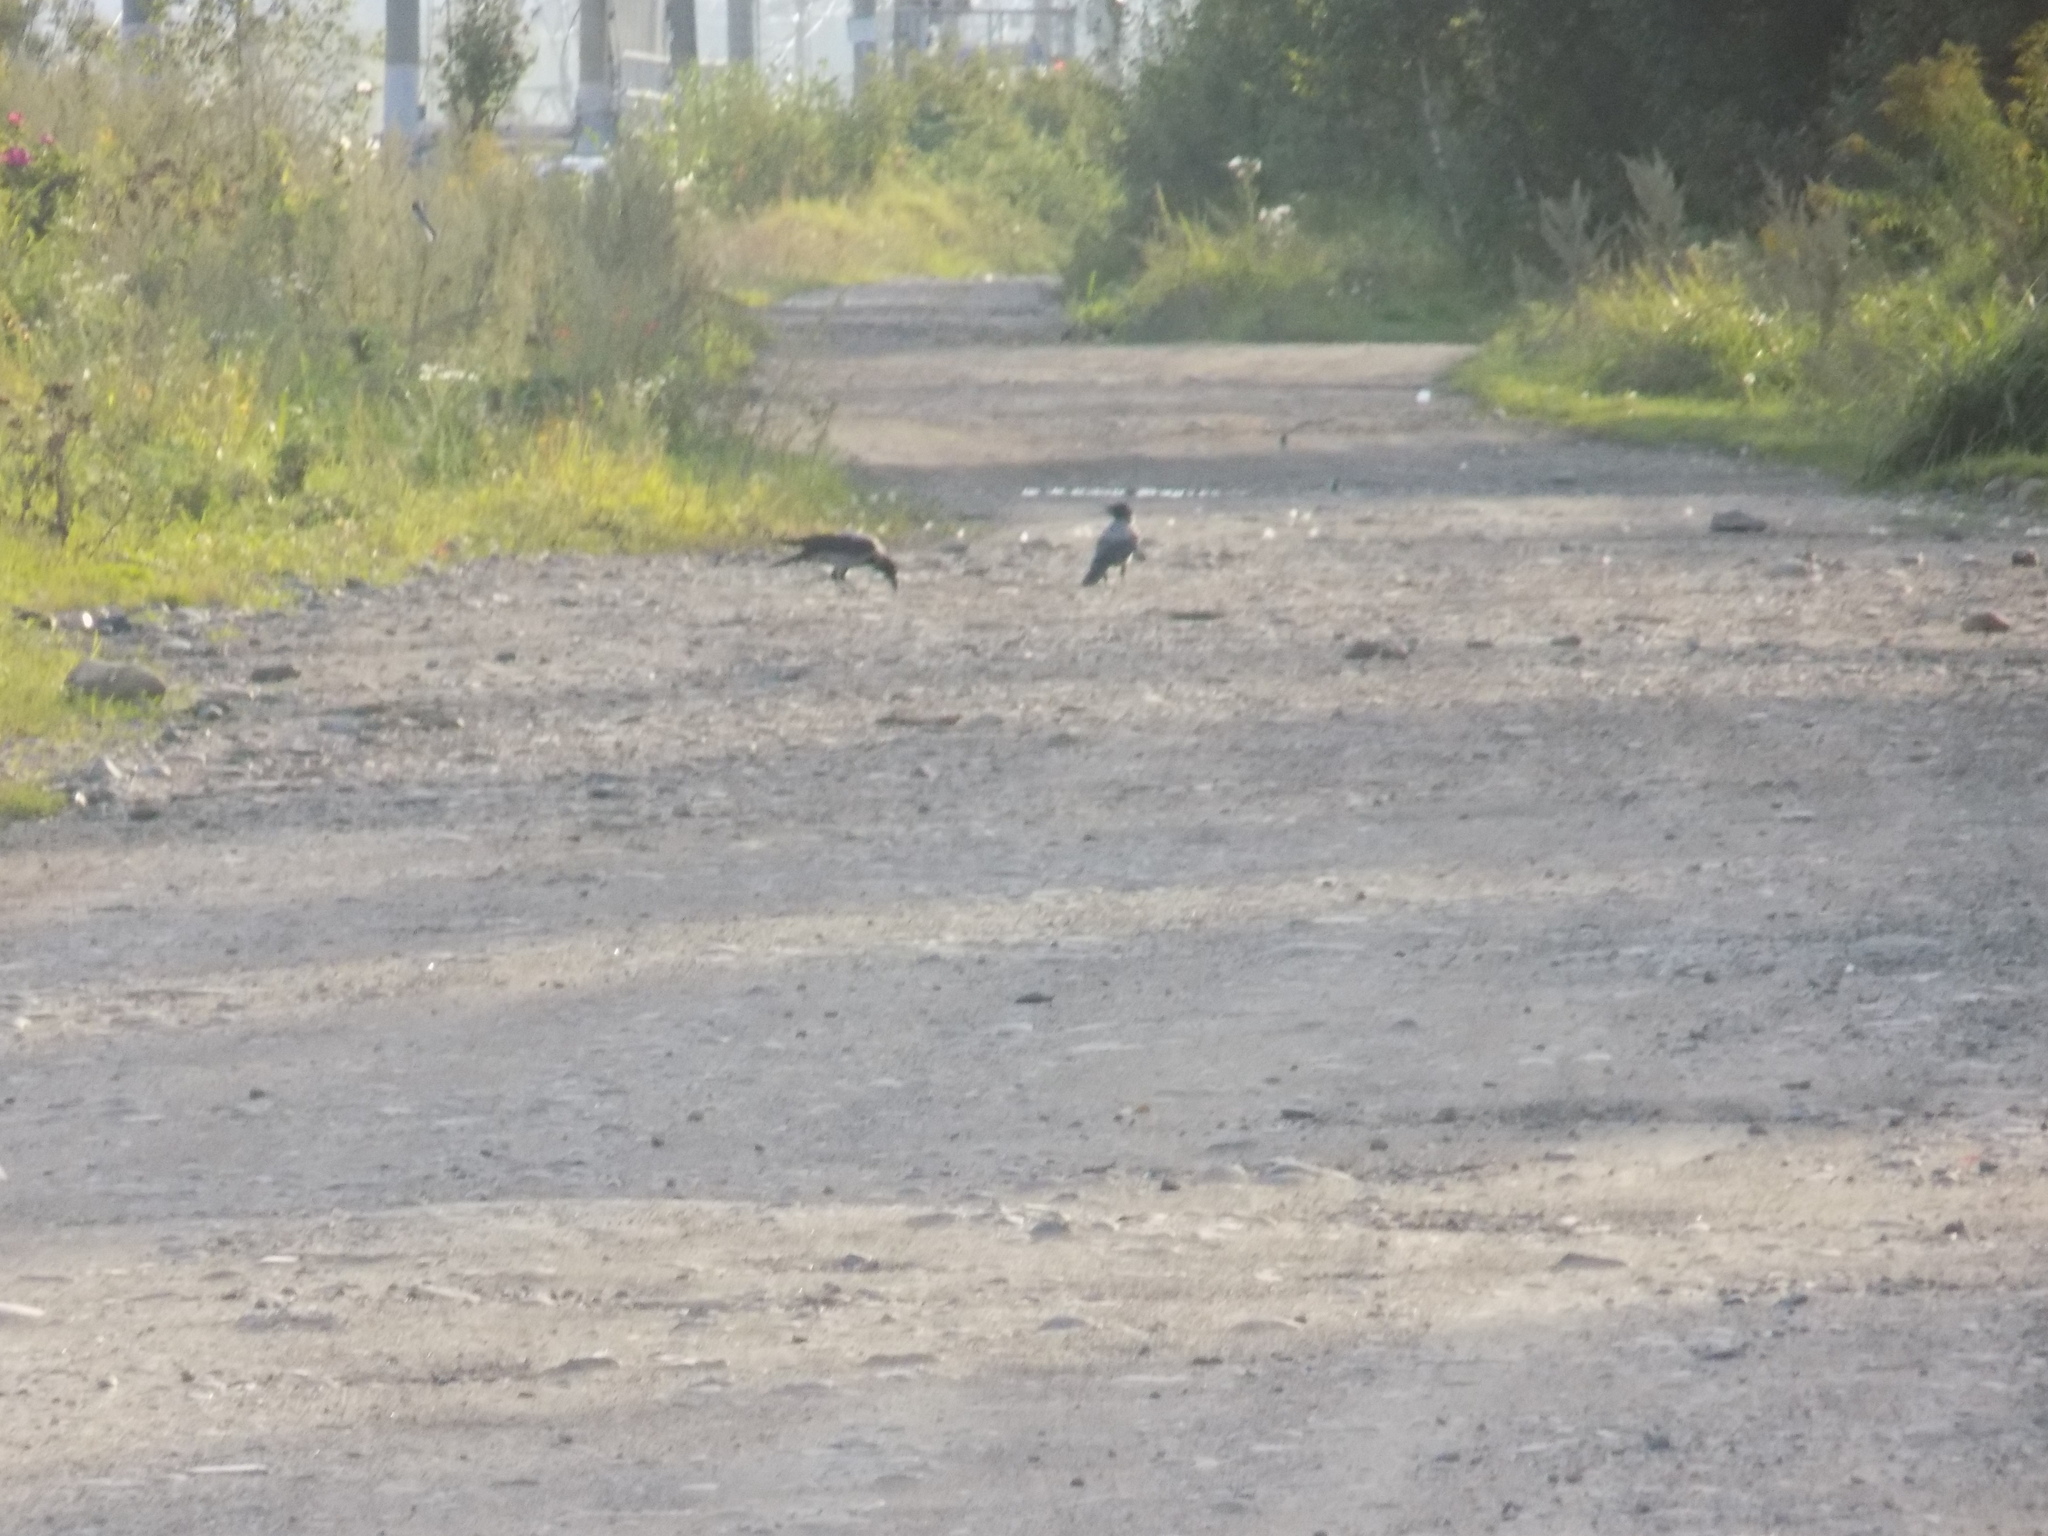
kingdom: Animalia
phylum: Chordata
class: Aves
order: Passeriformes
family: Corvidae
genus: Corvus
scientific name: Corvus cornix
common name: Hooded crow
